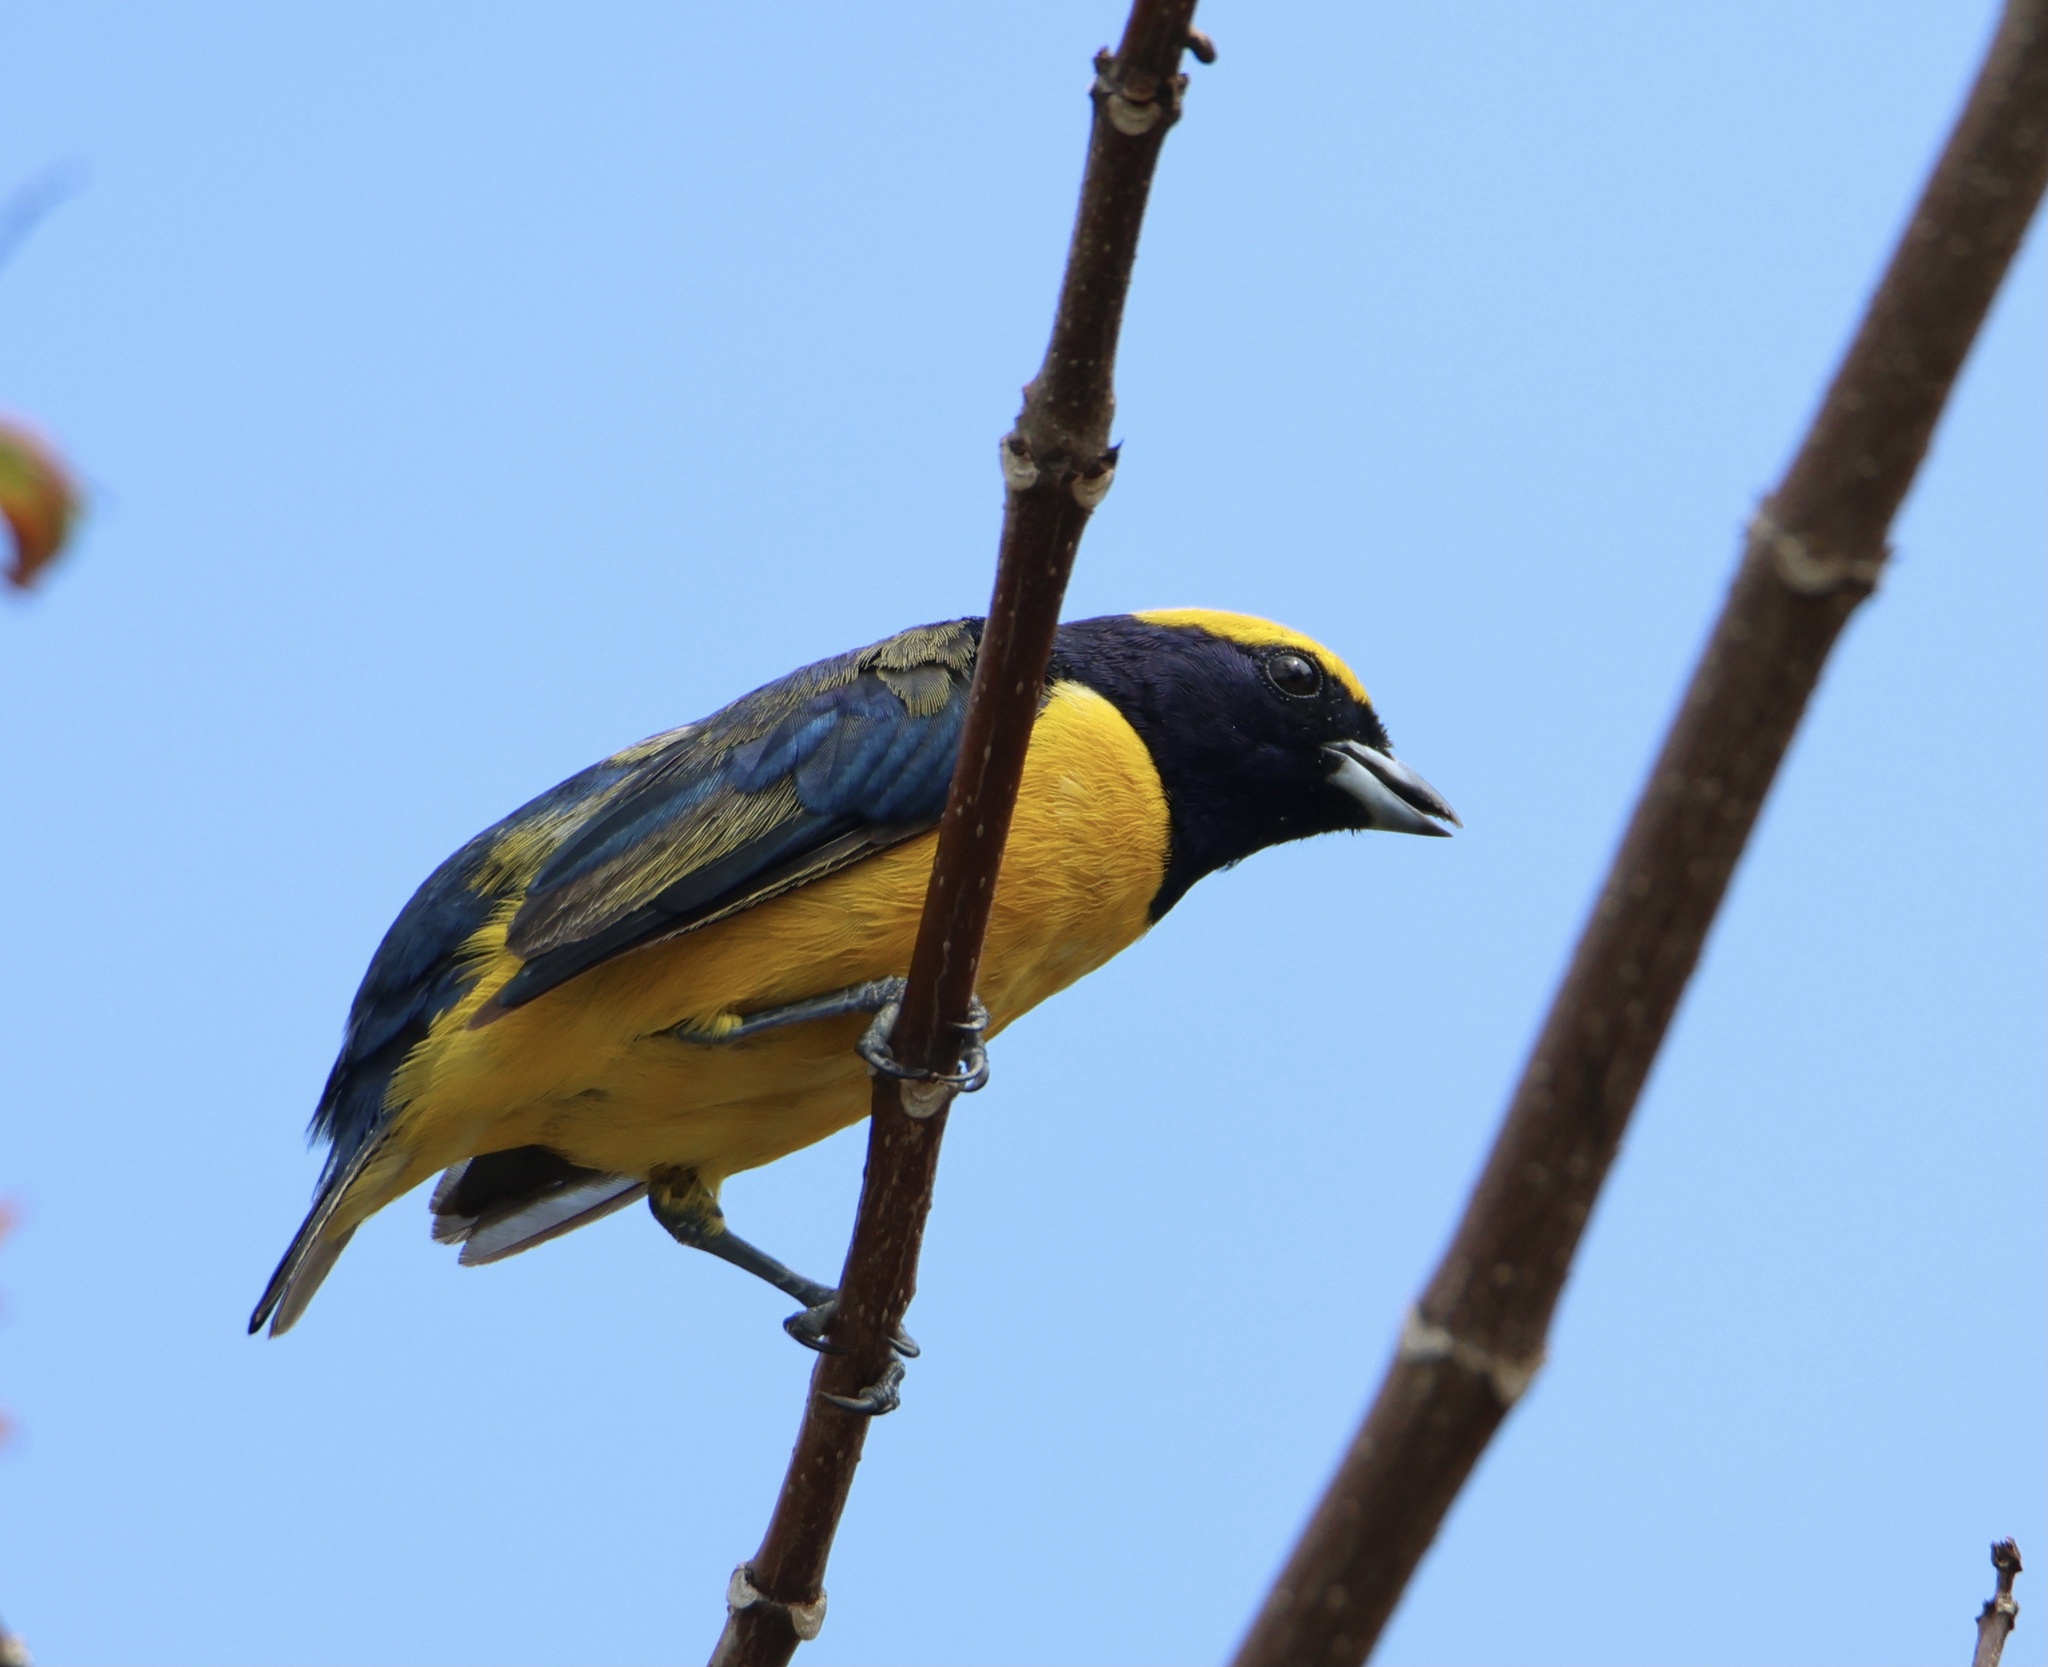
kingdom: Animalia
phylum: Chordata
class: Aves
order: Passeriformes
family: Fringillidae
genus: Euphonia
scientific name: Euphonia luteicapilla
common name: Yellow-crowned euphonia
